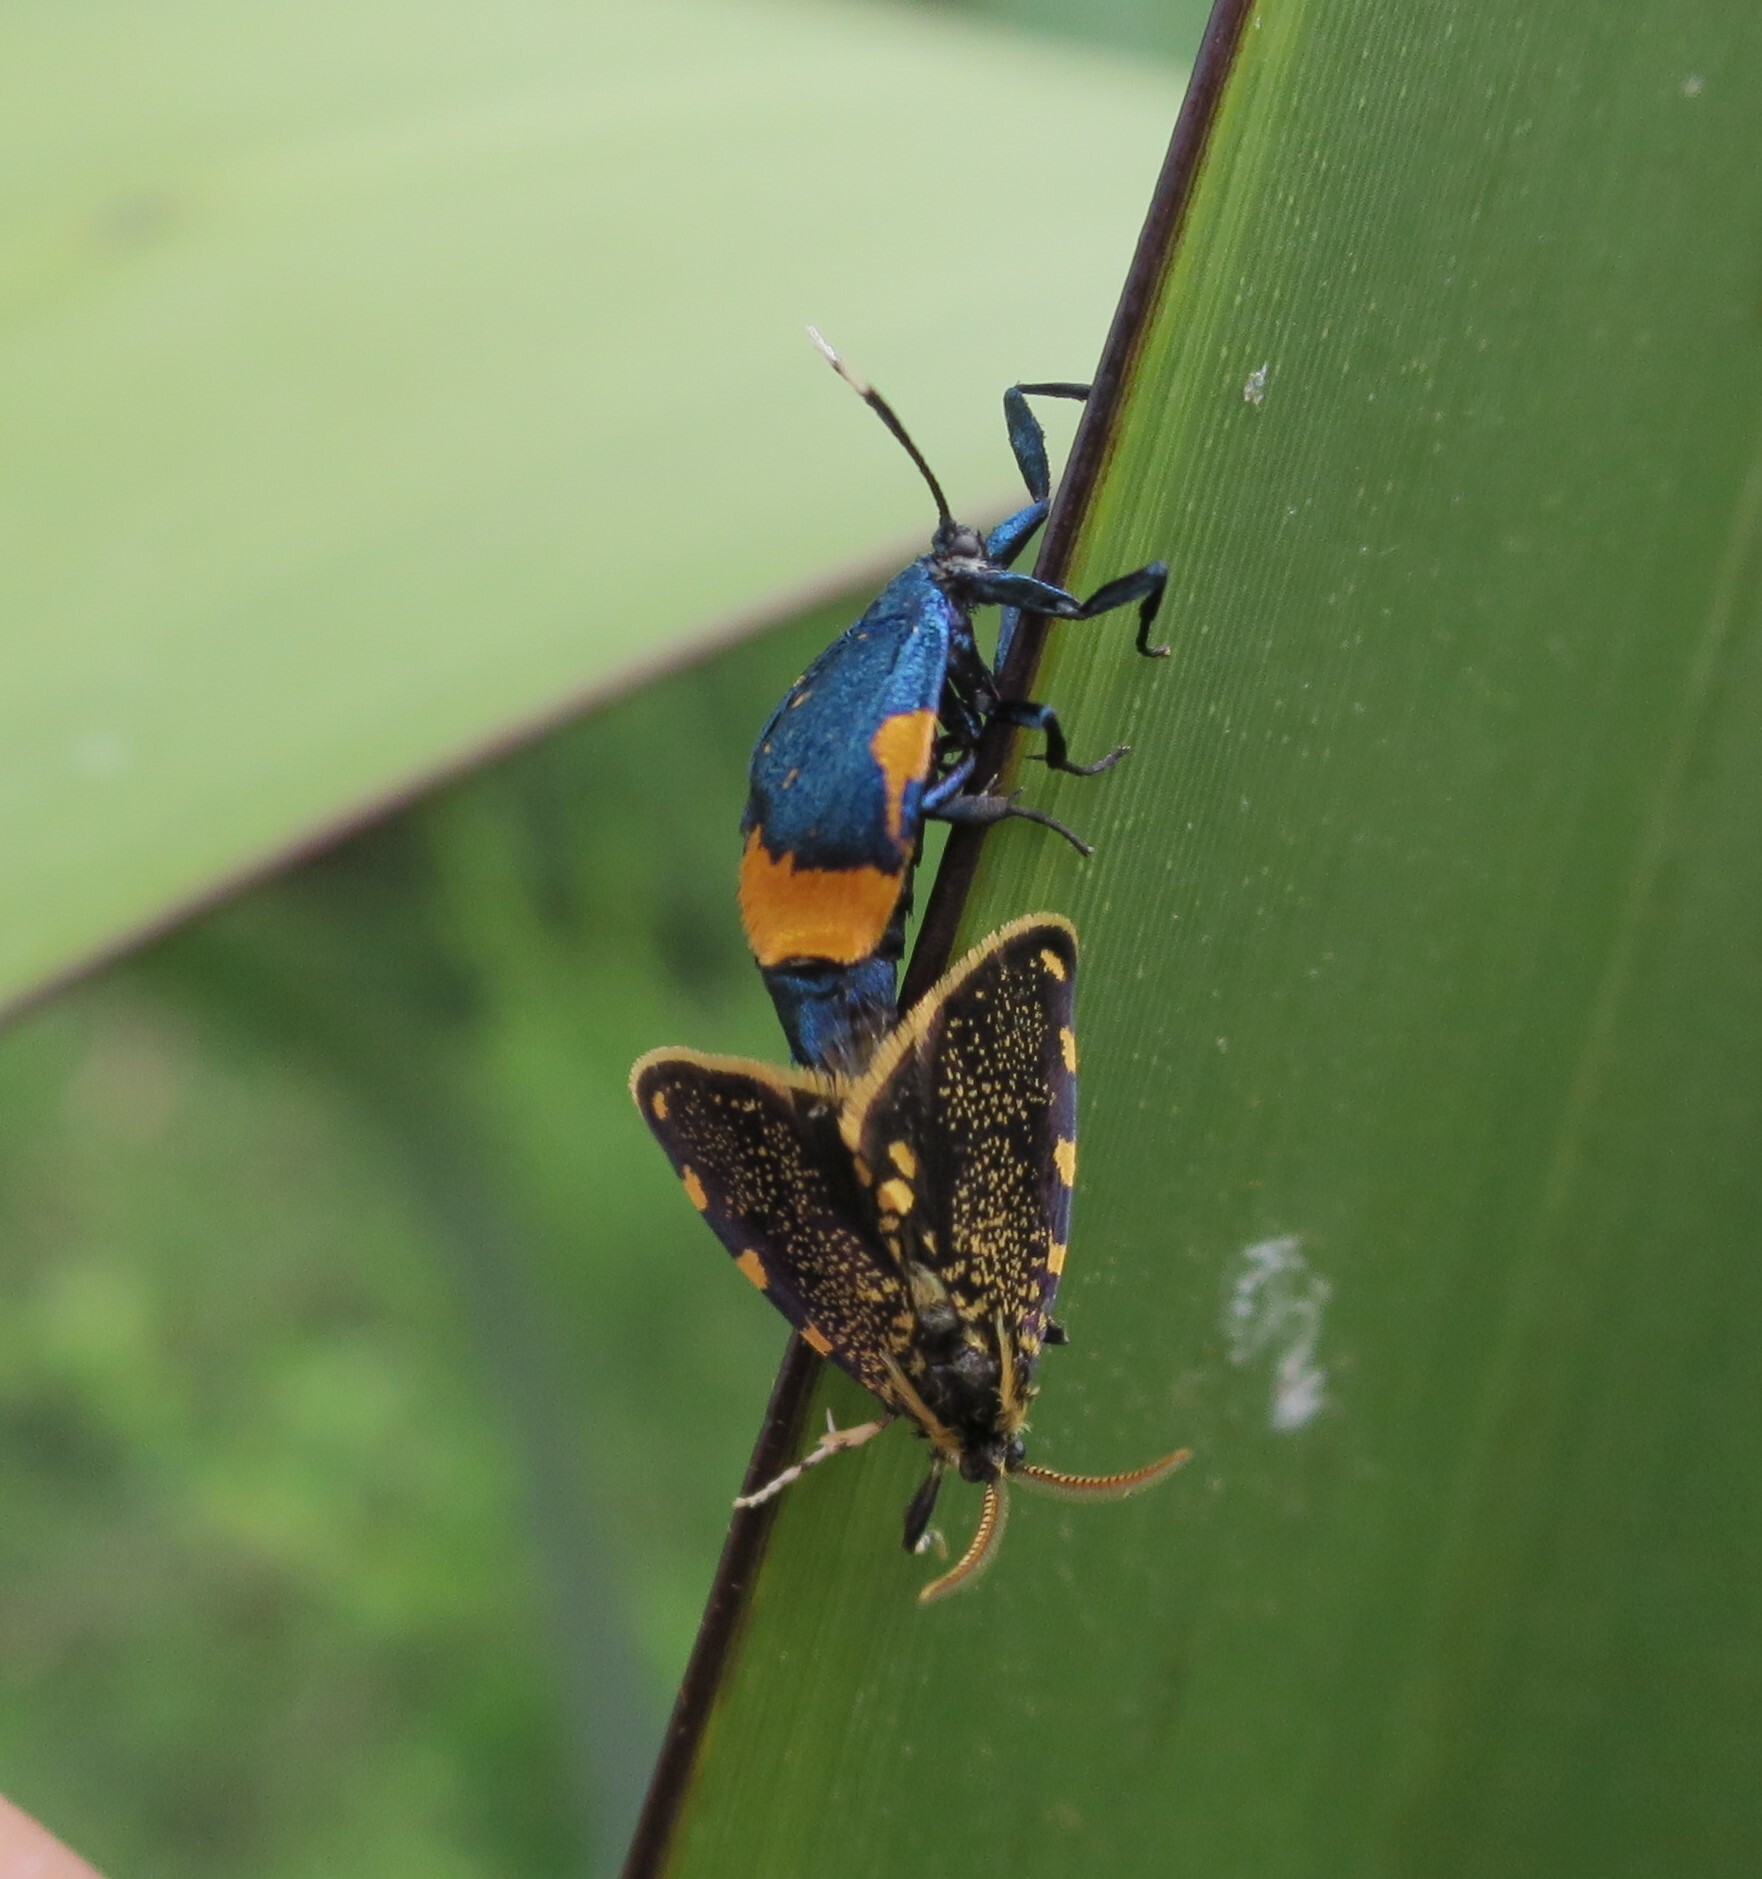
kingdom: Animalia
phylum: Arthropoda
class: Insecta
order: Lepidoptera
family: Psychidae
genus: Cebysa
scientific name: Cebysa leucotelus
